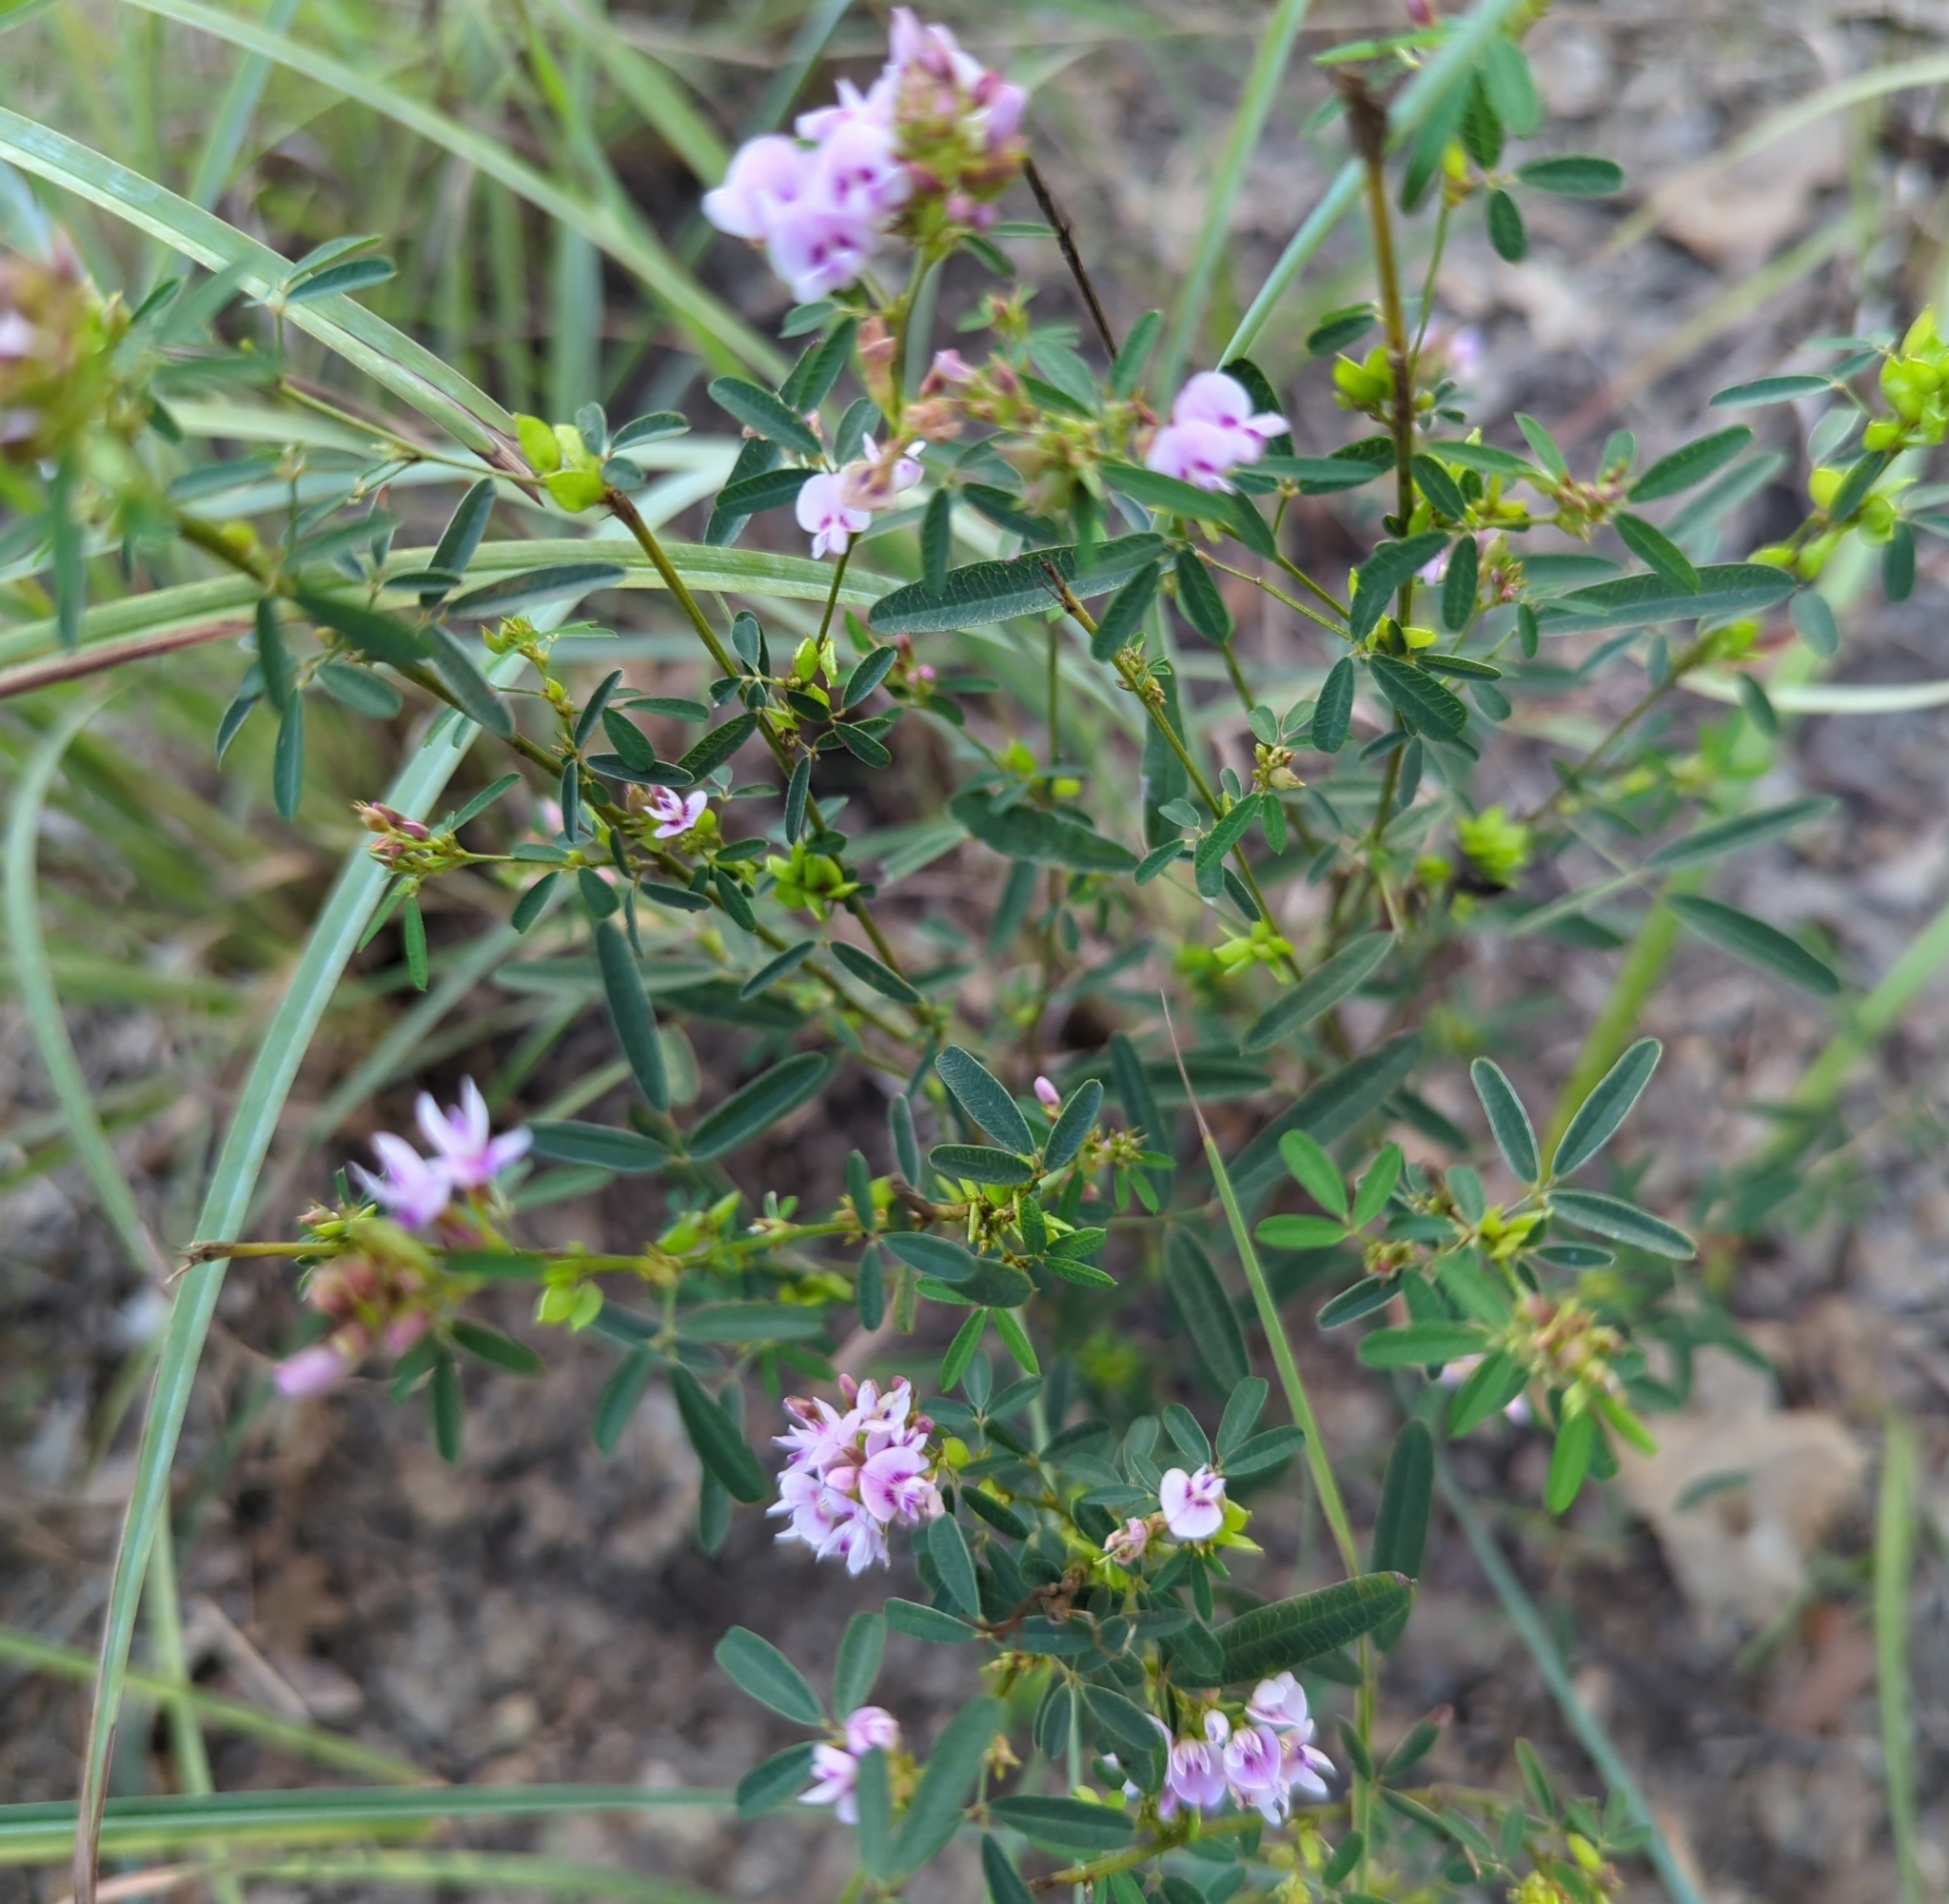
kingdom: Plantae
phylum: Tracheophyta
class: Magnoliopsida
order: Fabales
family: Fabaceae
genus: Lespedeza
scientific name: Lespedeza virginica
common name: Slender bush-clover
